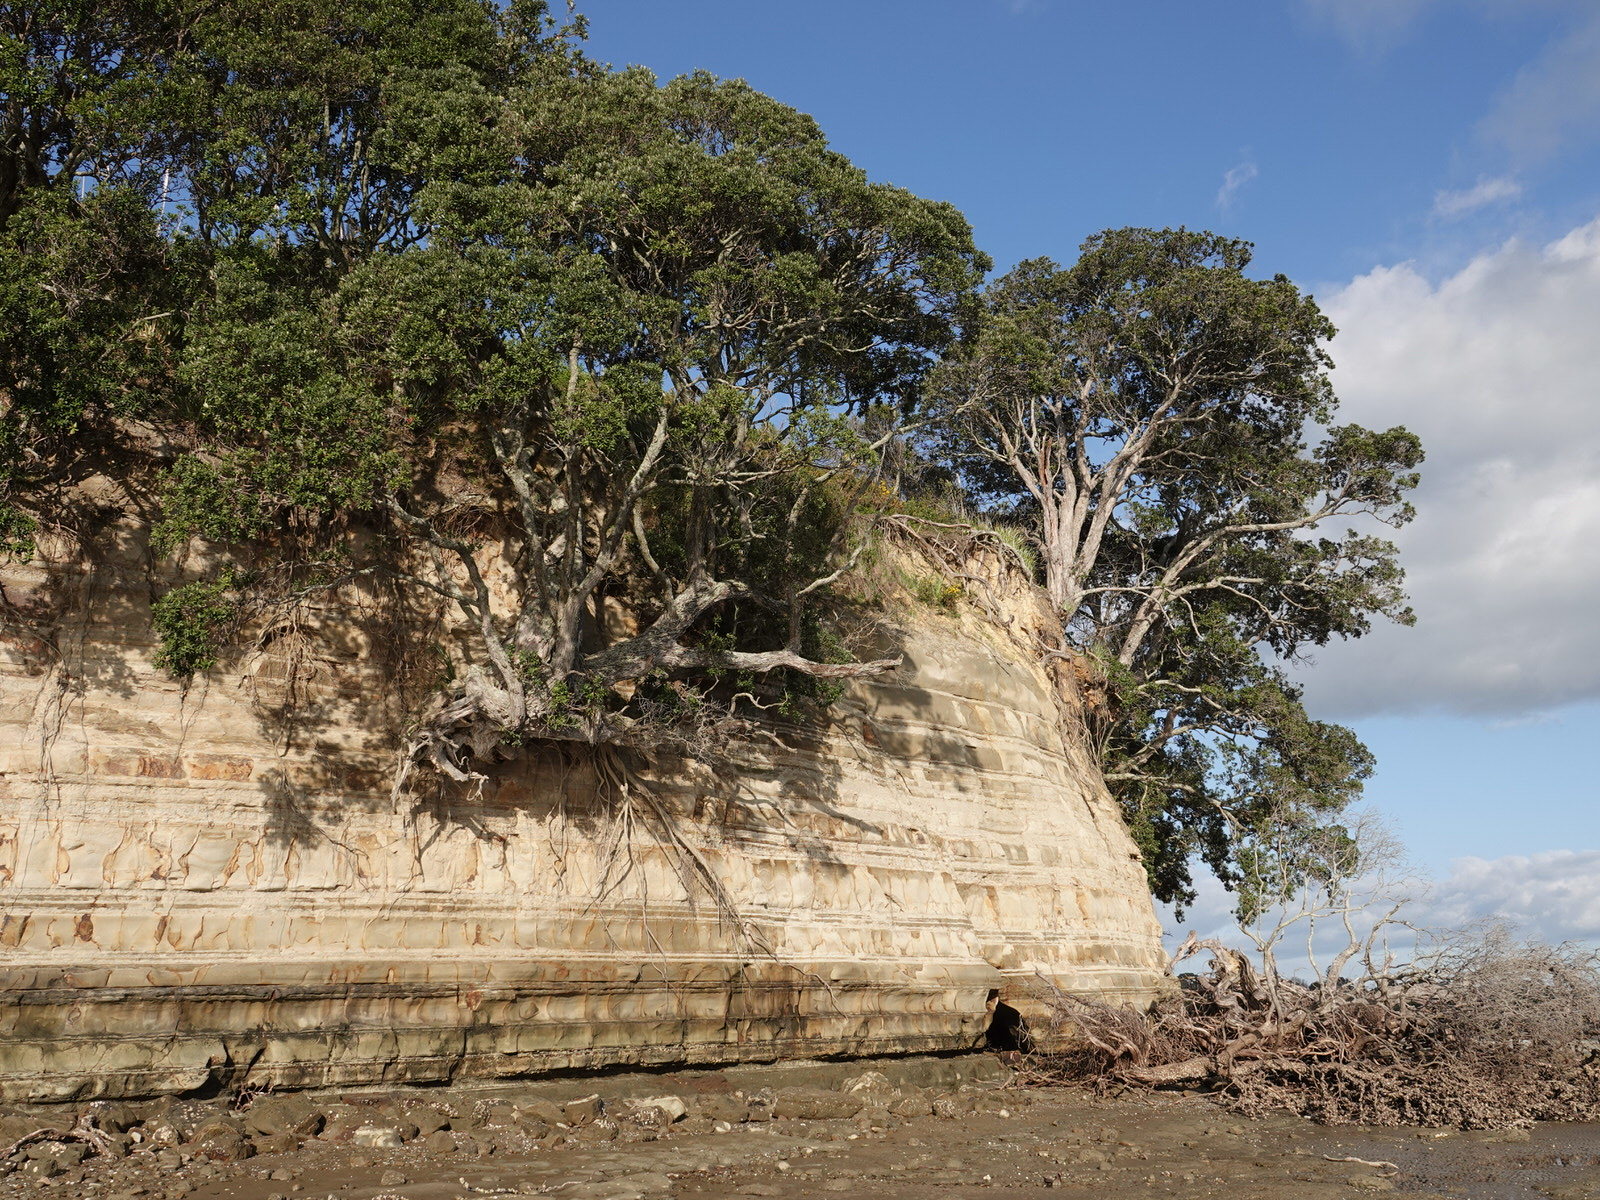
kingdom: Plantae
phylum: Tracheophyta
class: Magnoliopsida
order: Myrtales
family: Myrtaceae
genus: Metrosideros
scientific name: Metrosideros excelsa
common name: New zealand christmastree
